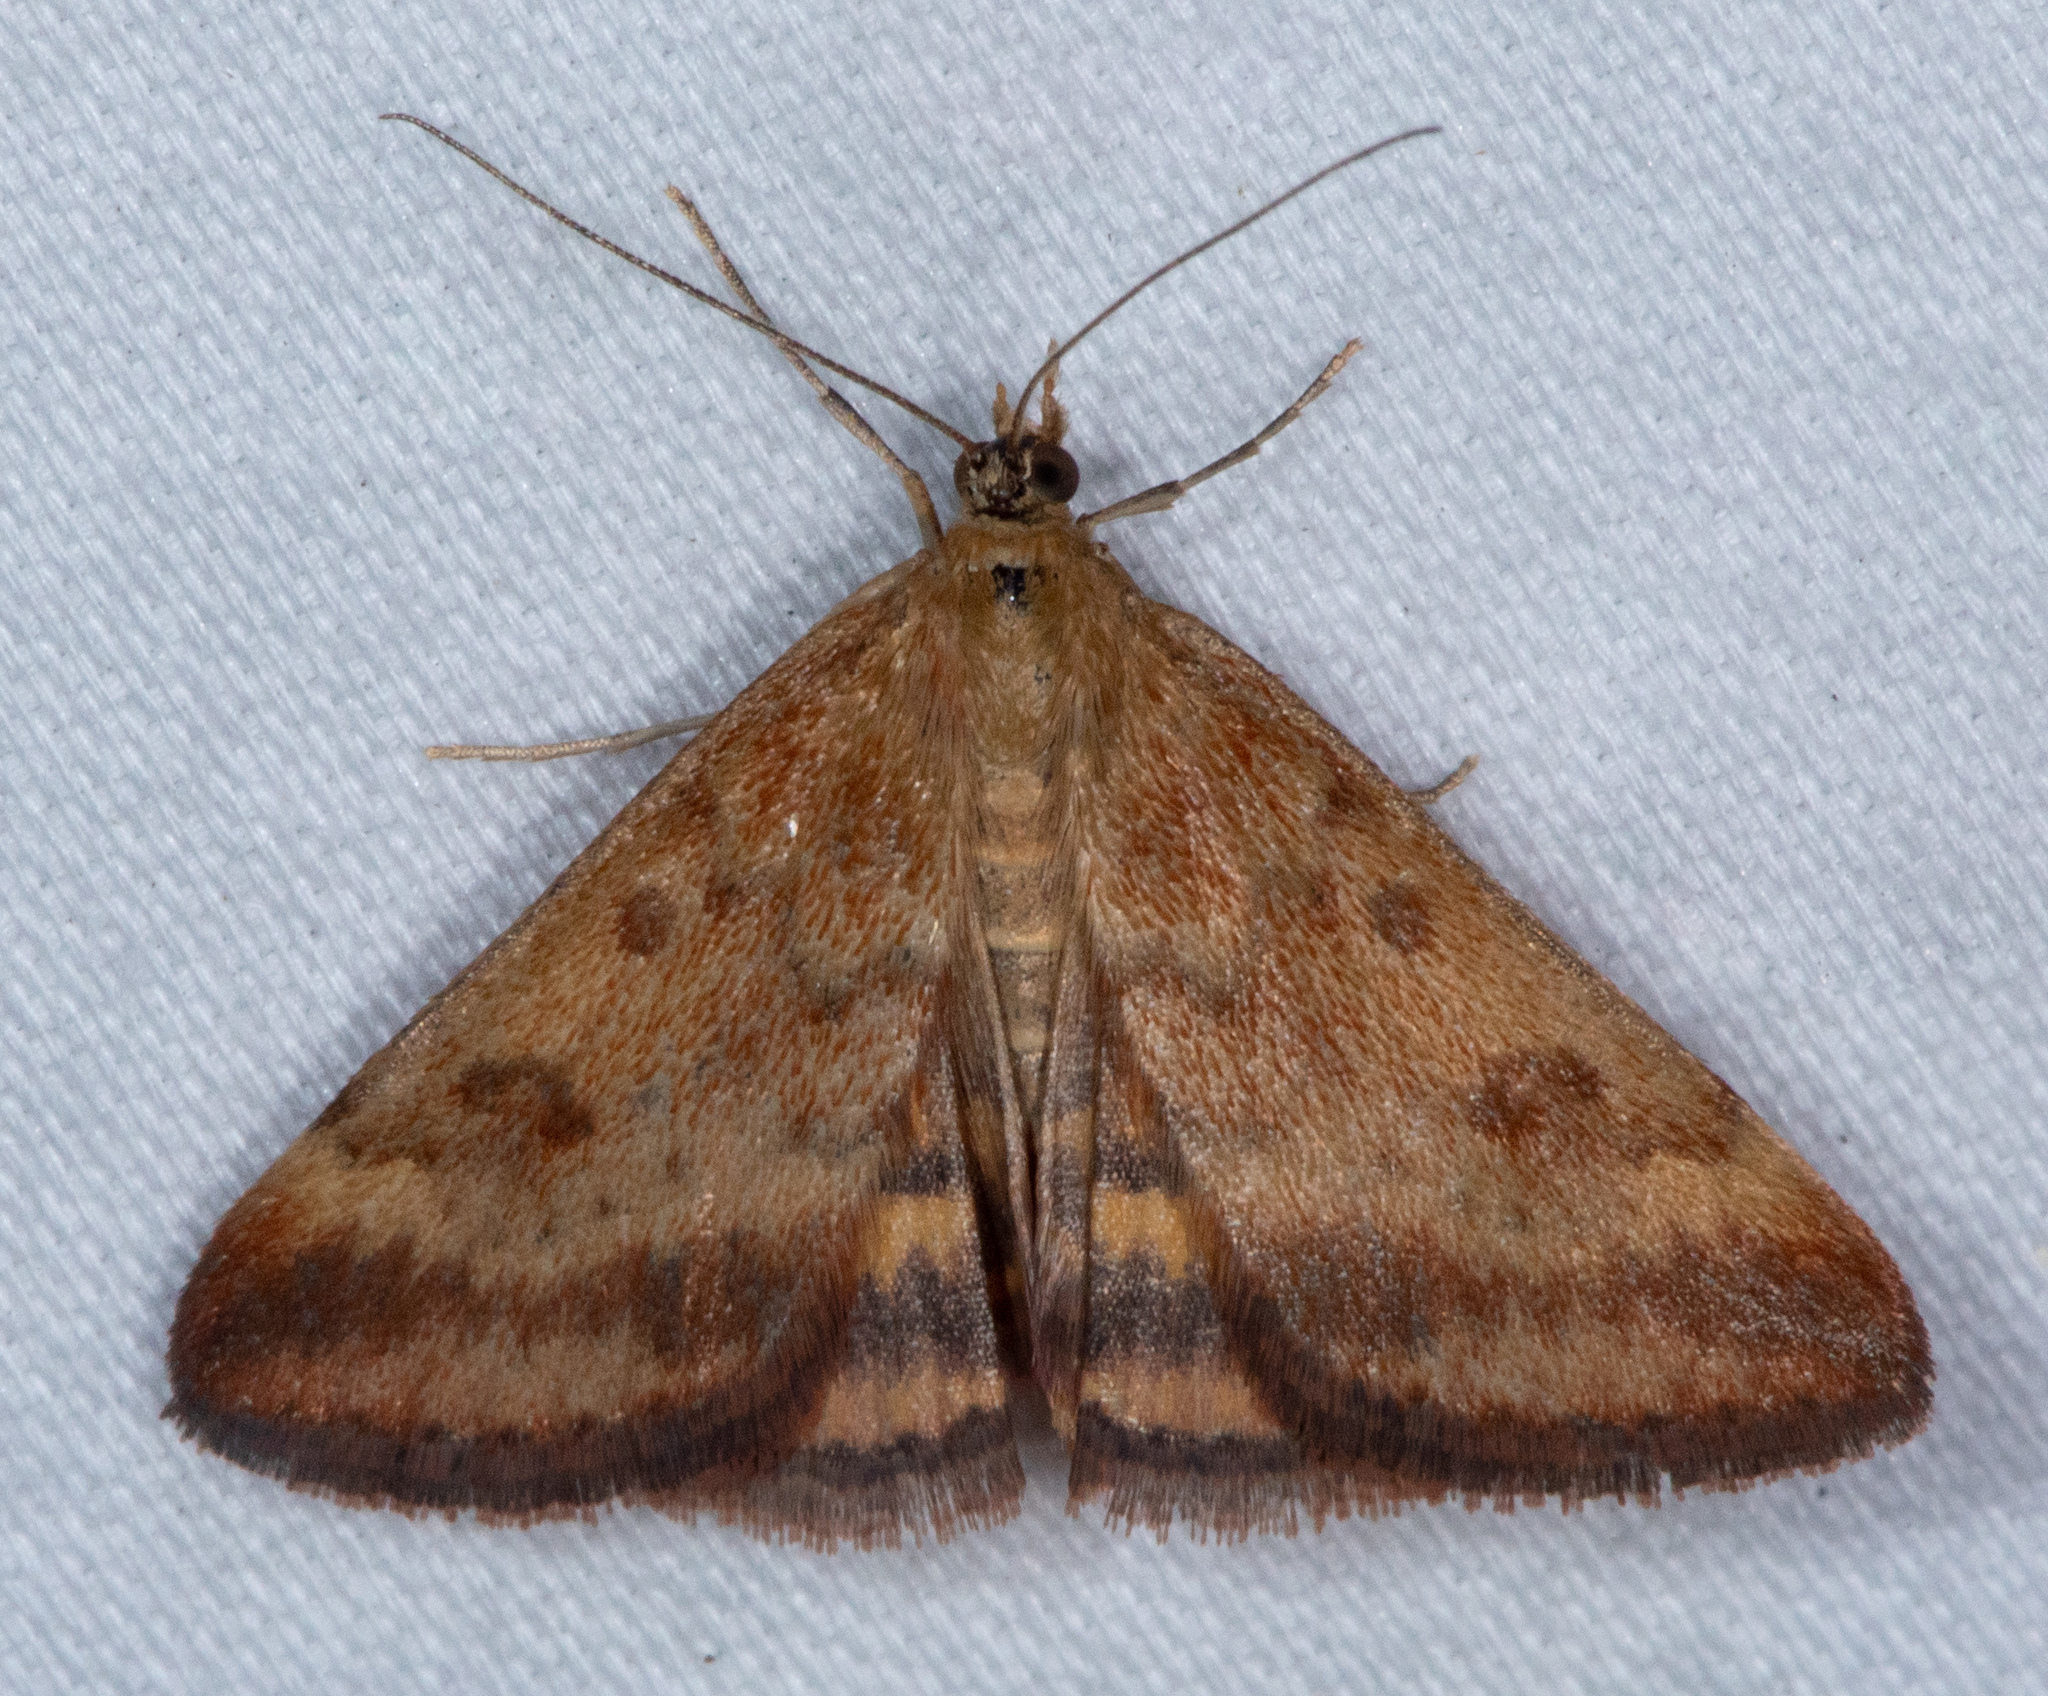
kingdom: Animalia
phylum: Arthropoda
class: Insecta
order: Lepidoptera
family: Crambidae
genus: Pyrausta
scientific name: Pyrausta subsequalis
